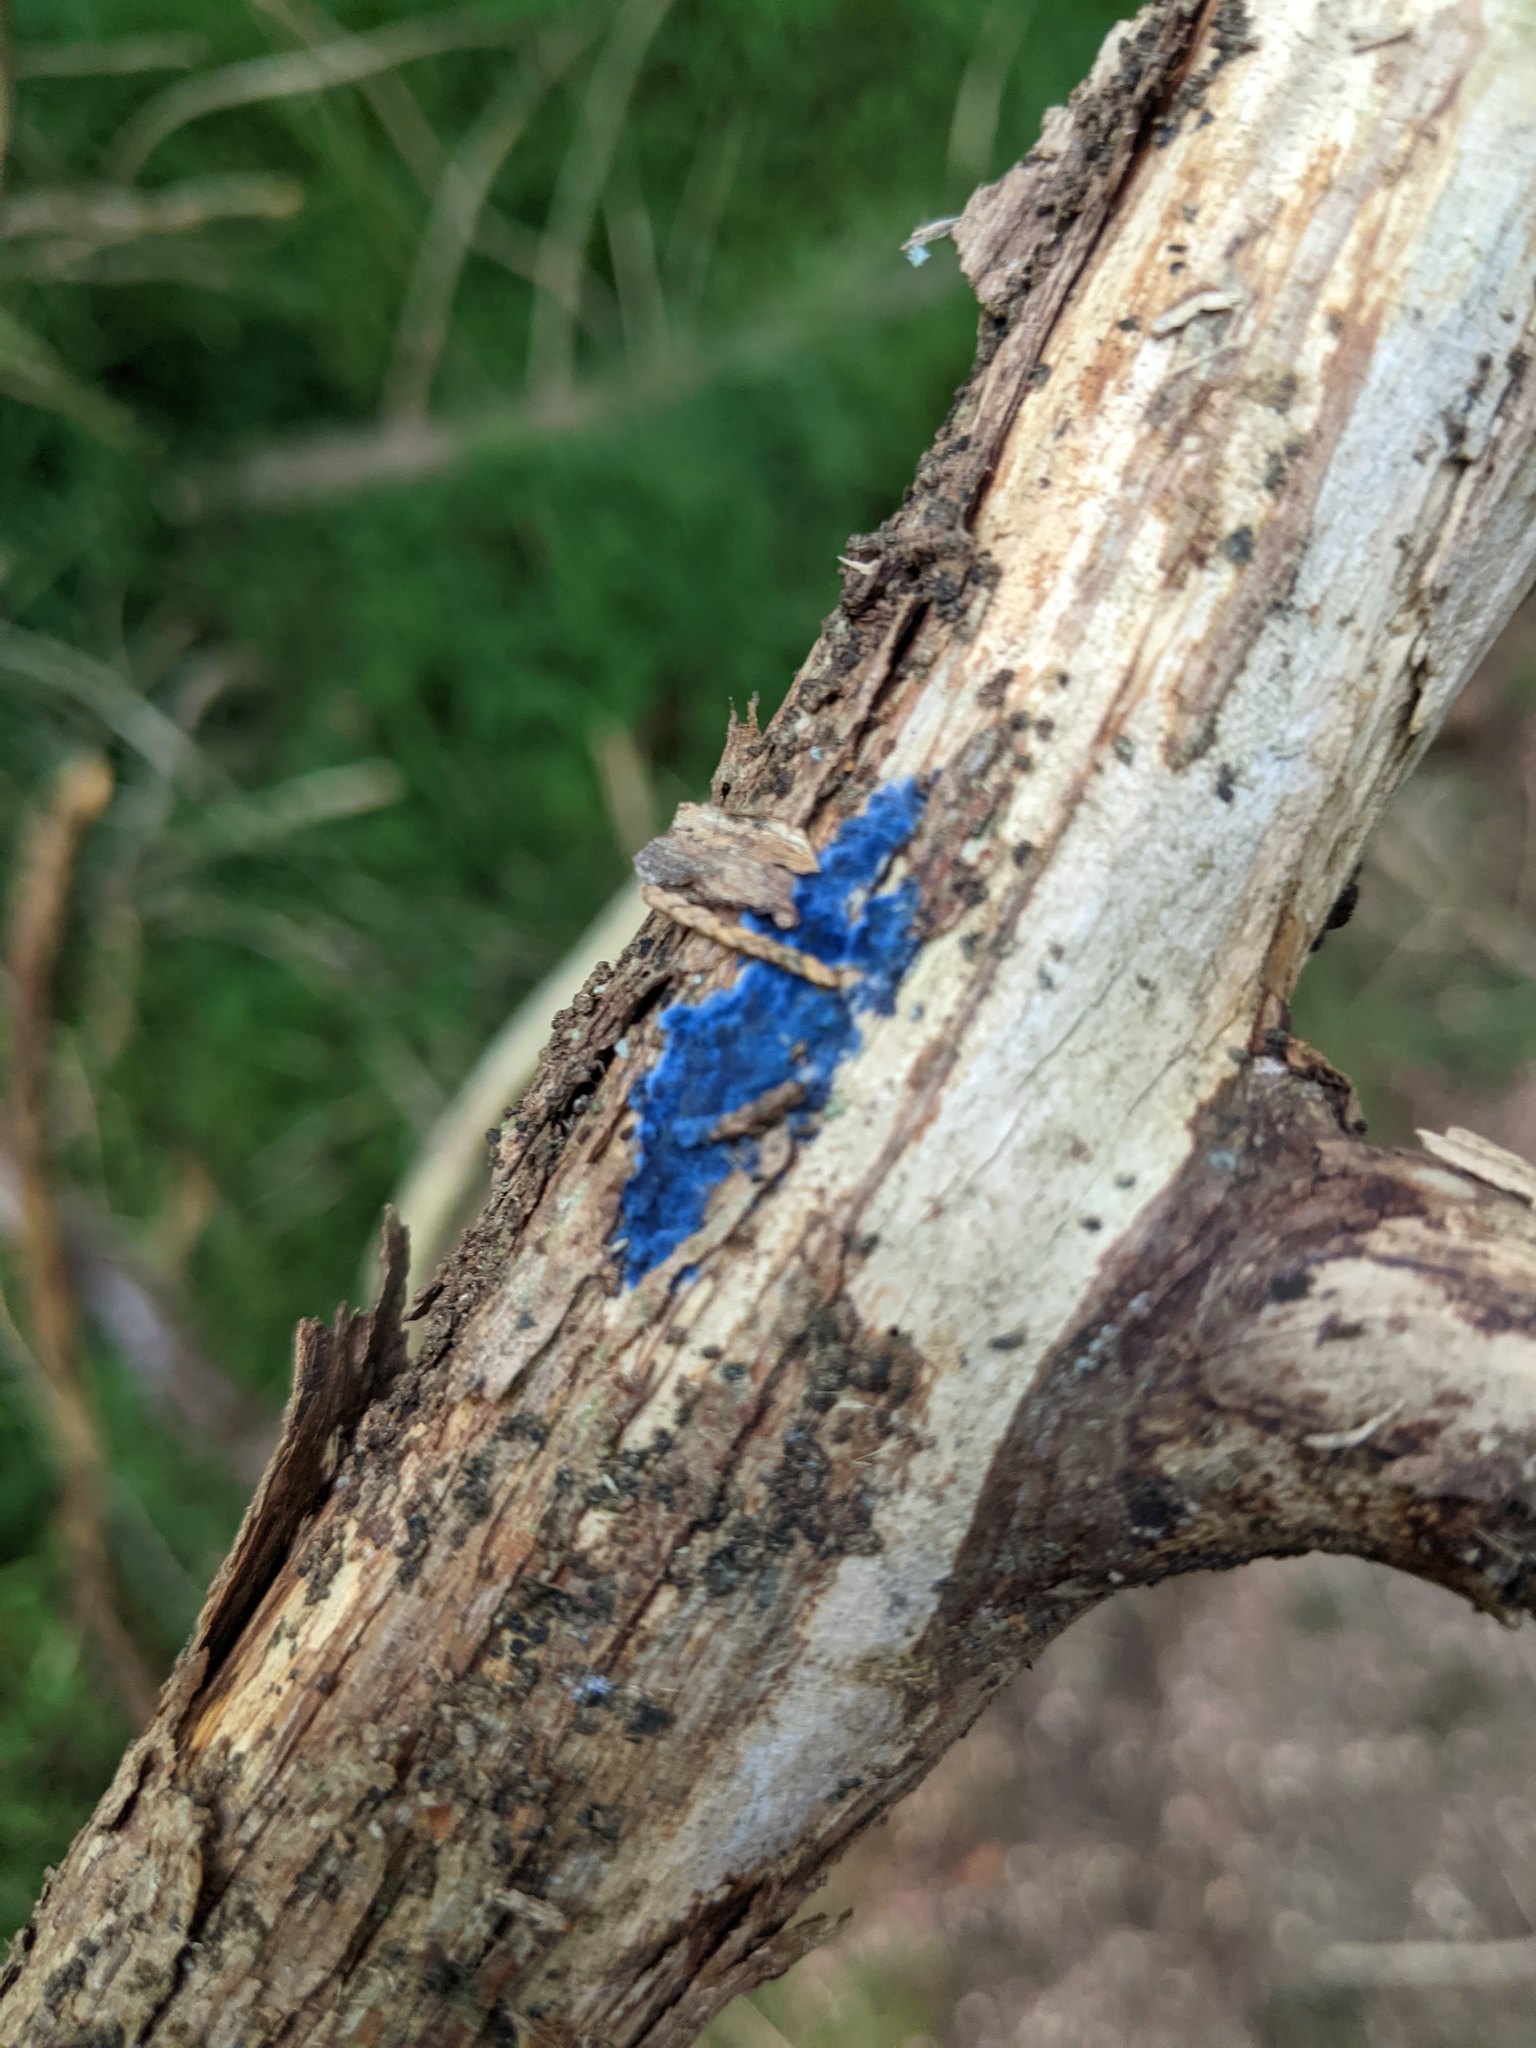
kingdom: Fungi
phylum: Basidiomycota
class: Agaricomycetes
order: Polyporales
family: Phanerochaetaceae
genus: Terana
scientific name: Terana coerulea
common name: Cobalt crust
